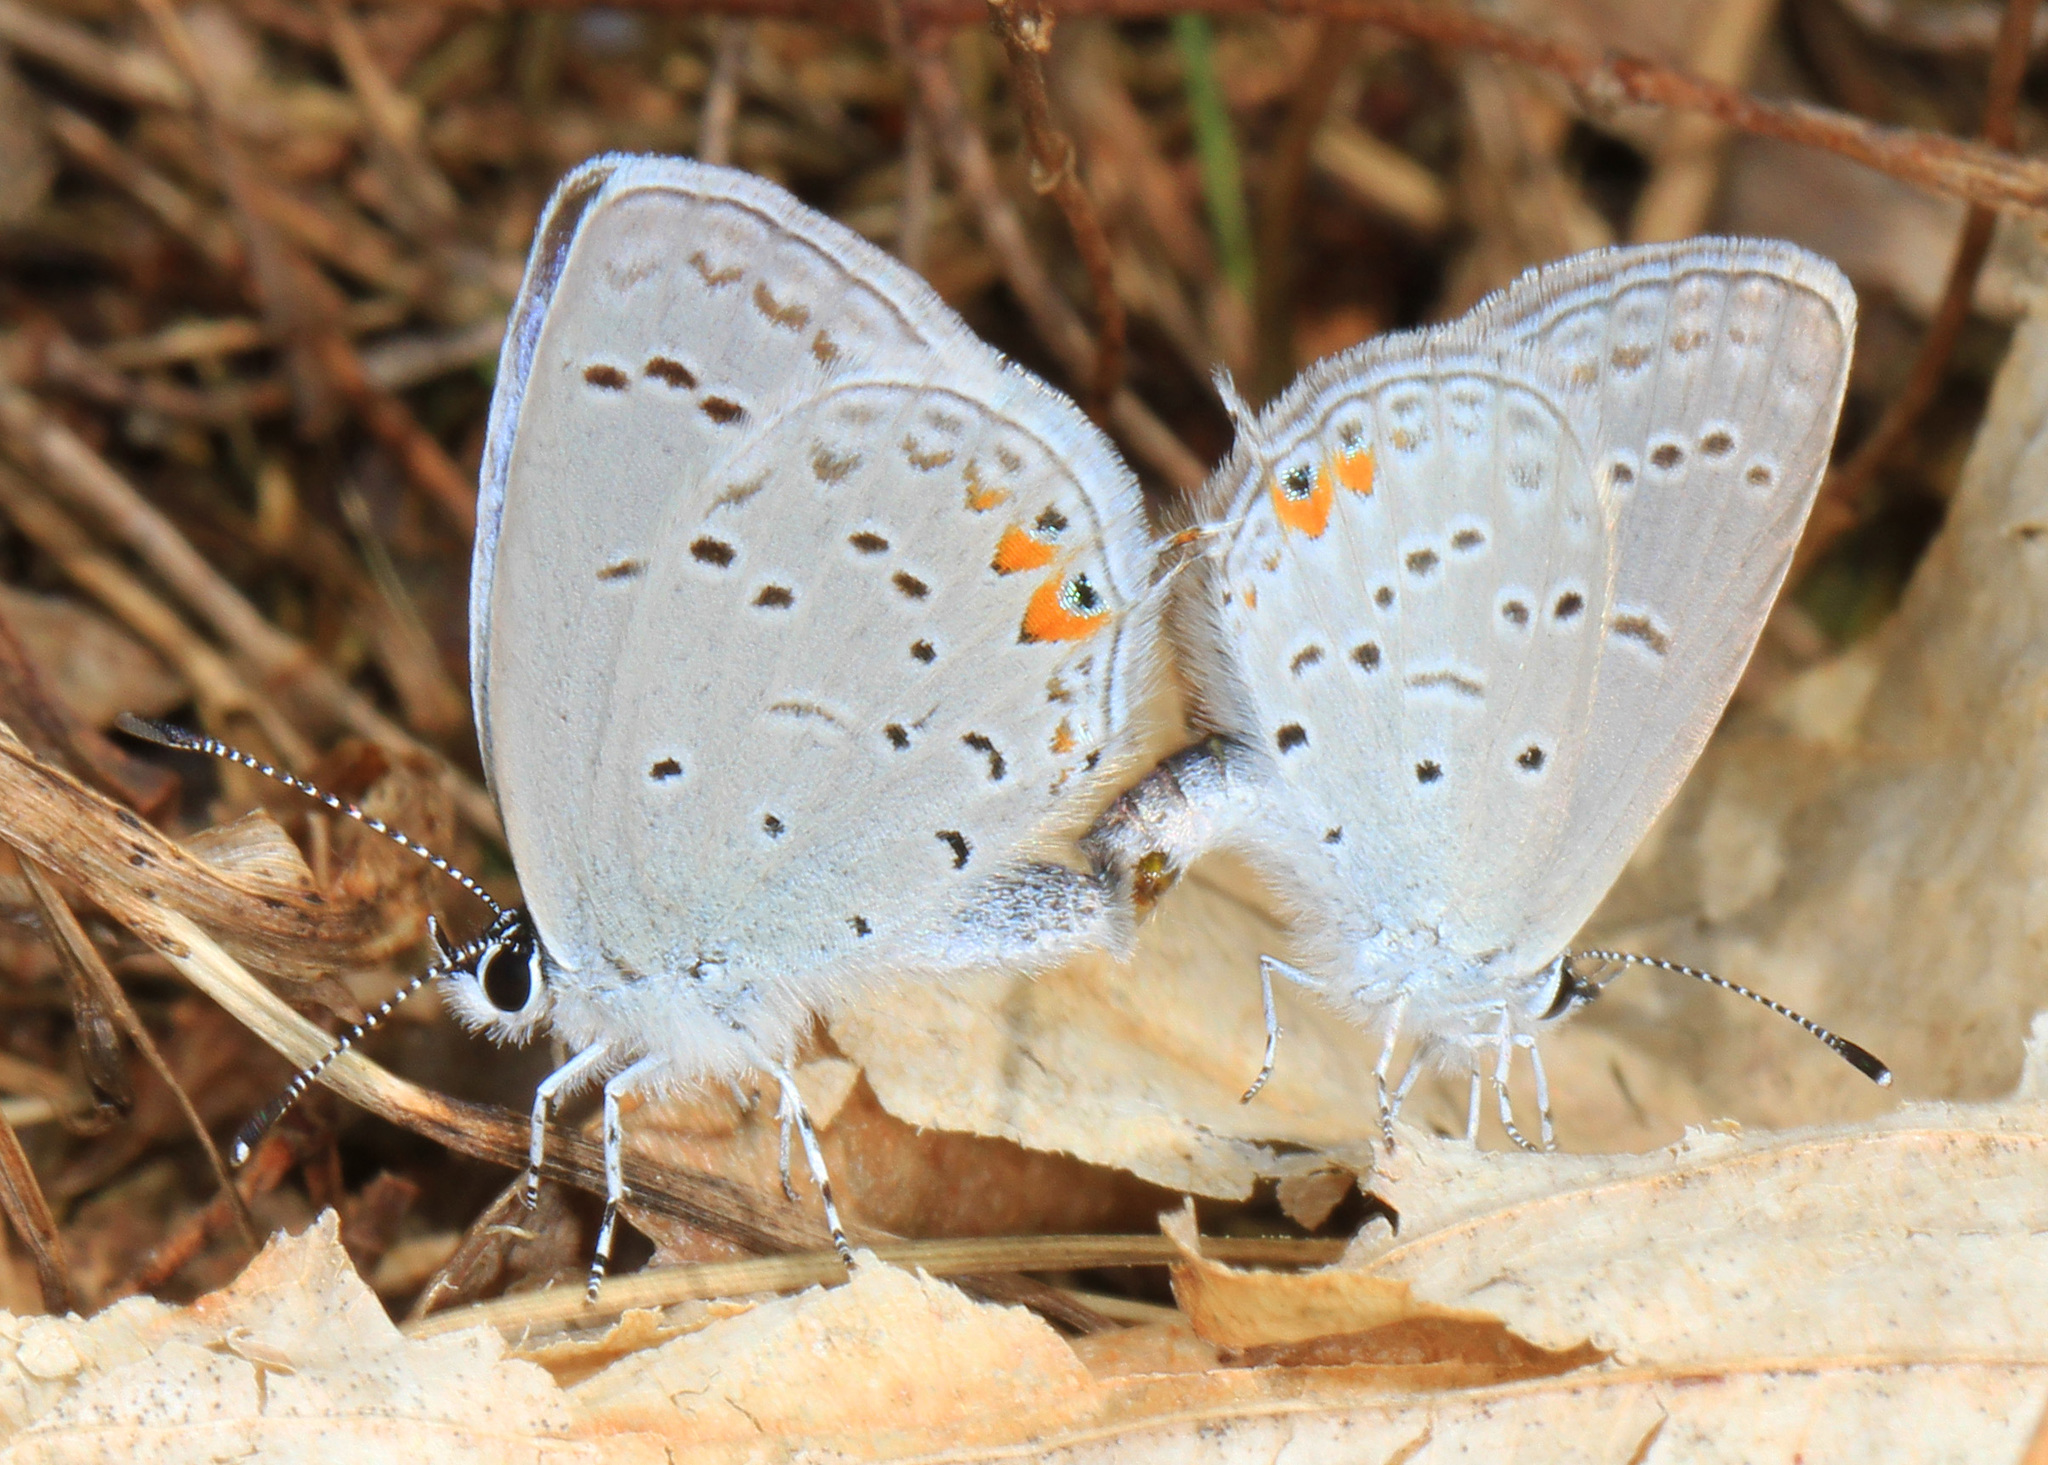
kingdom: Animalia
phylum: Arthropoda
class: Insecta
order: Lepidoptera
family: Lycaenidae
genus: Elkalyce
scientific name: Elkalyce comyntas
